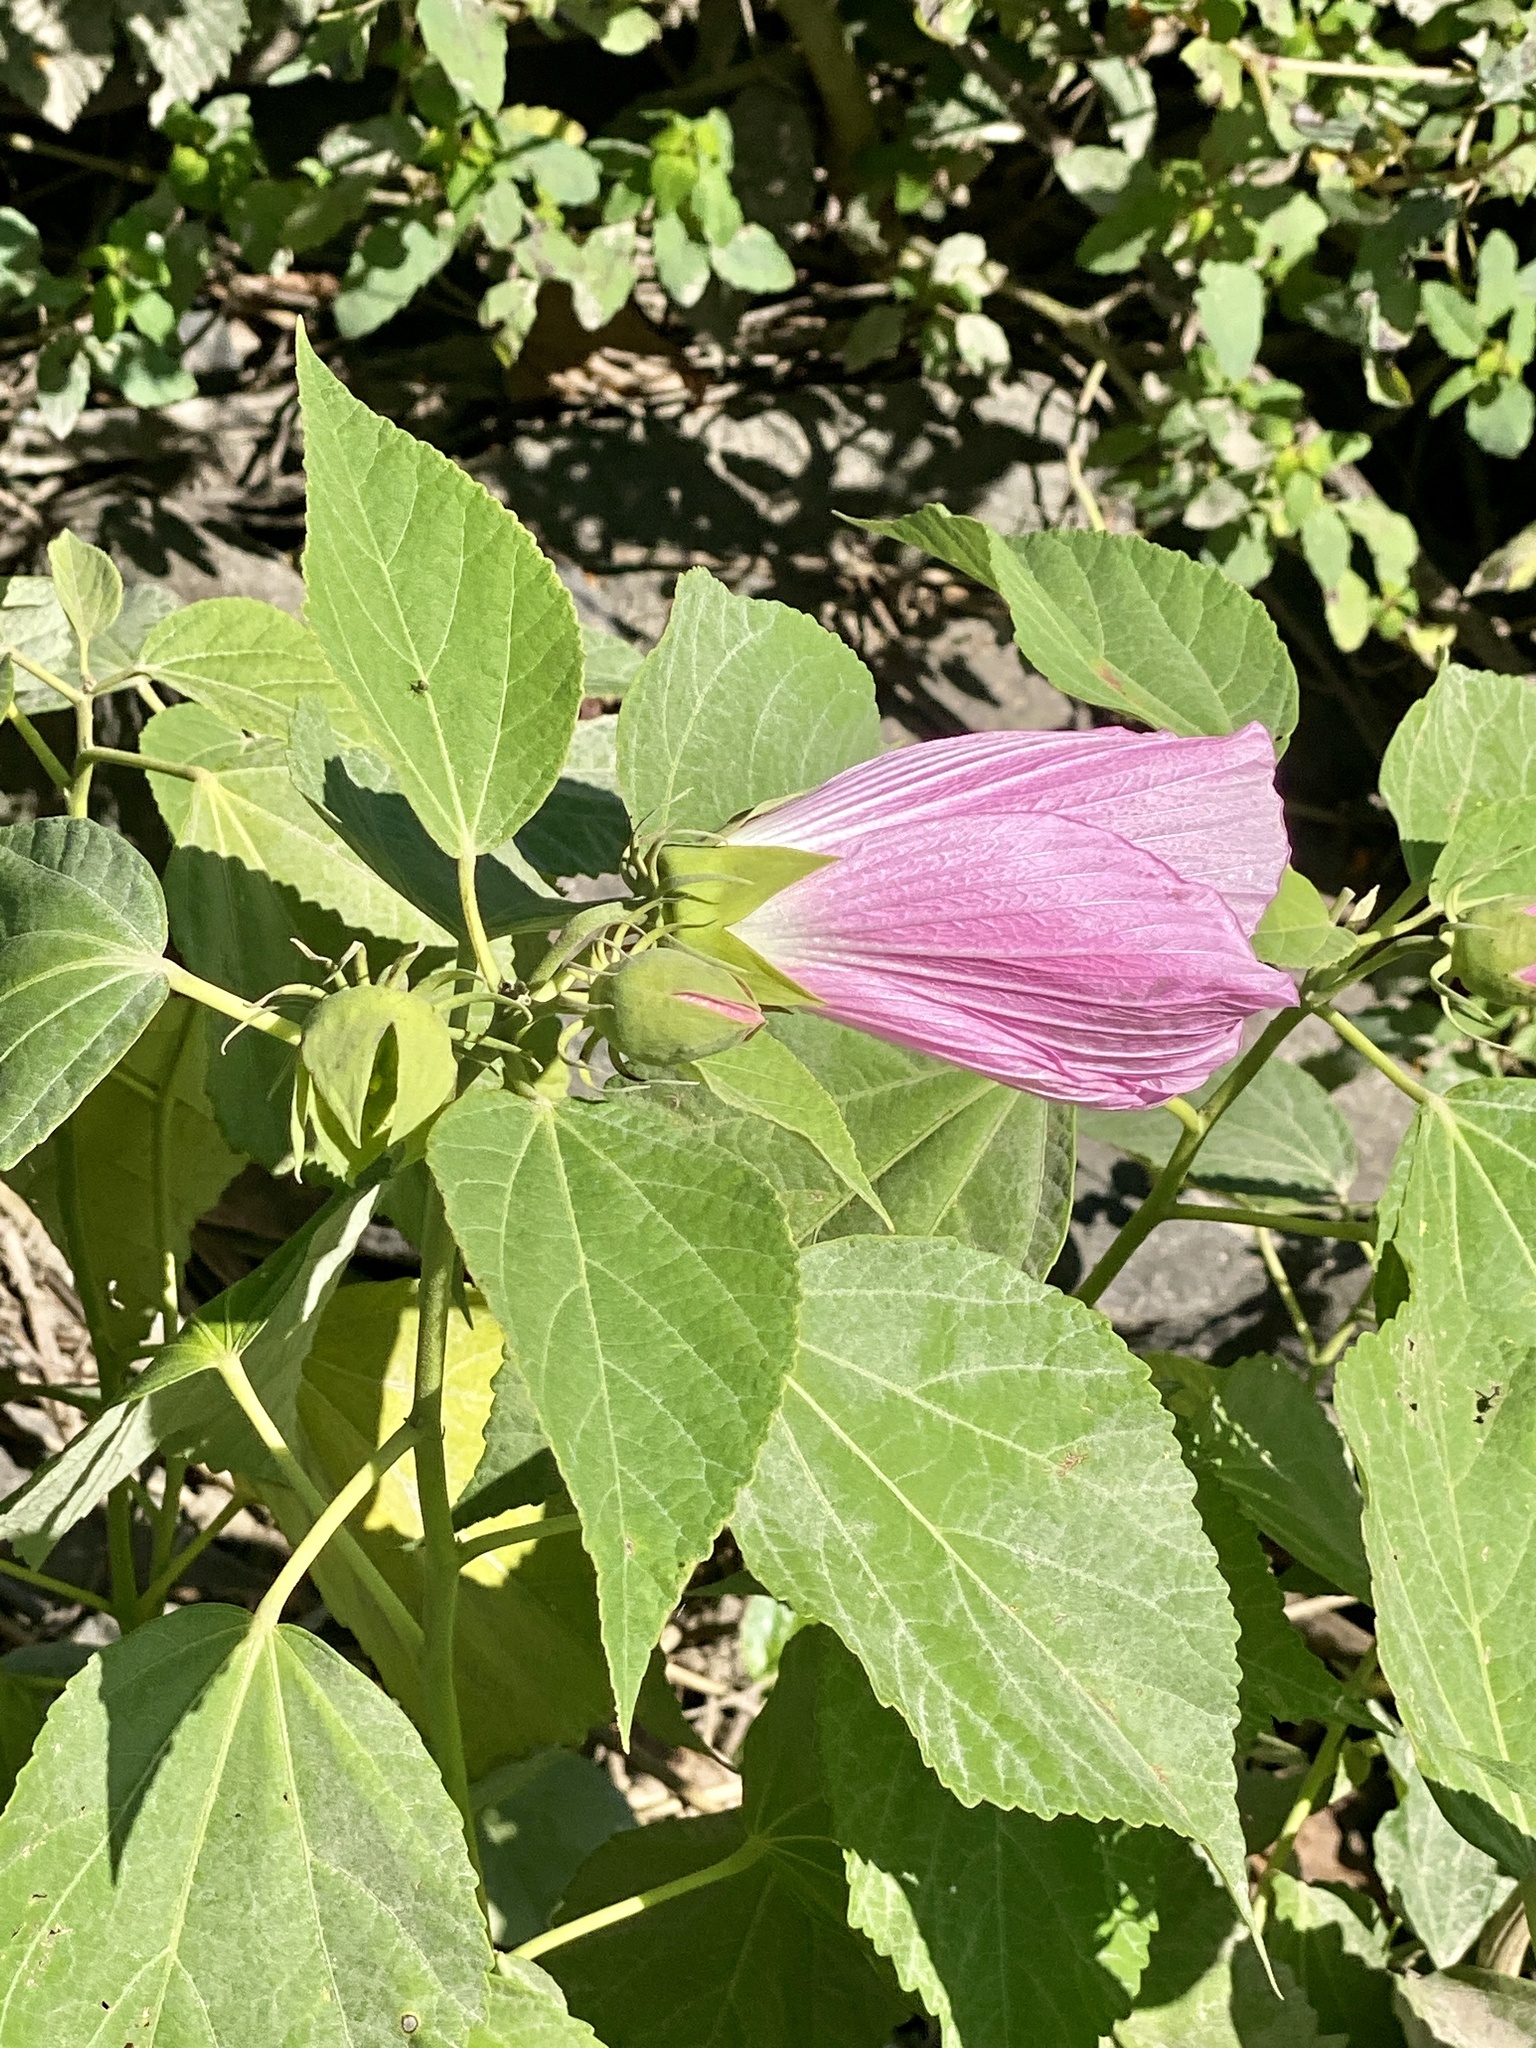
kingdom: Plantae
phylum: Tracheophyta
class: Magnoliopsida
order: Malvales
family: Malvaceae
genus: Hibiscus
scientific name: Hibiscus moscheutos
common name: Common rose-mallow
